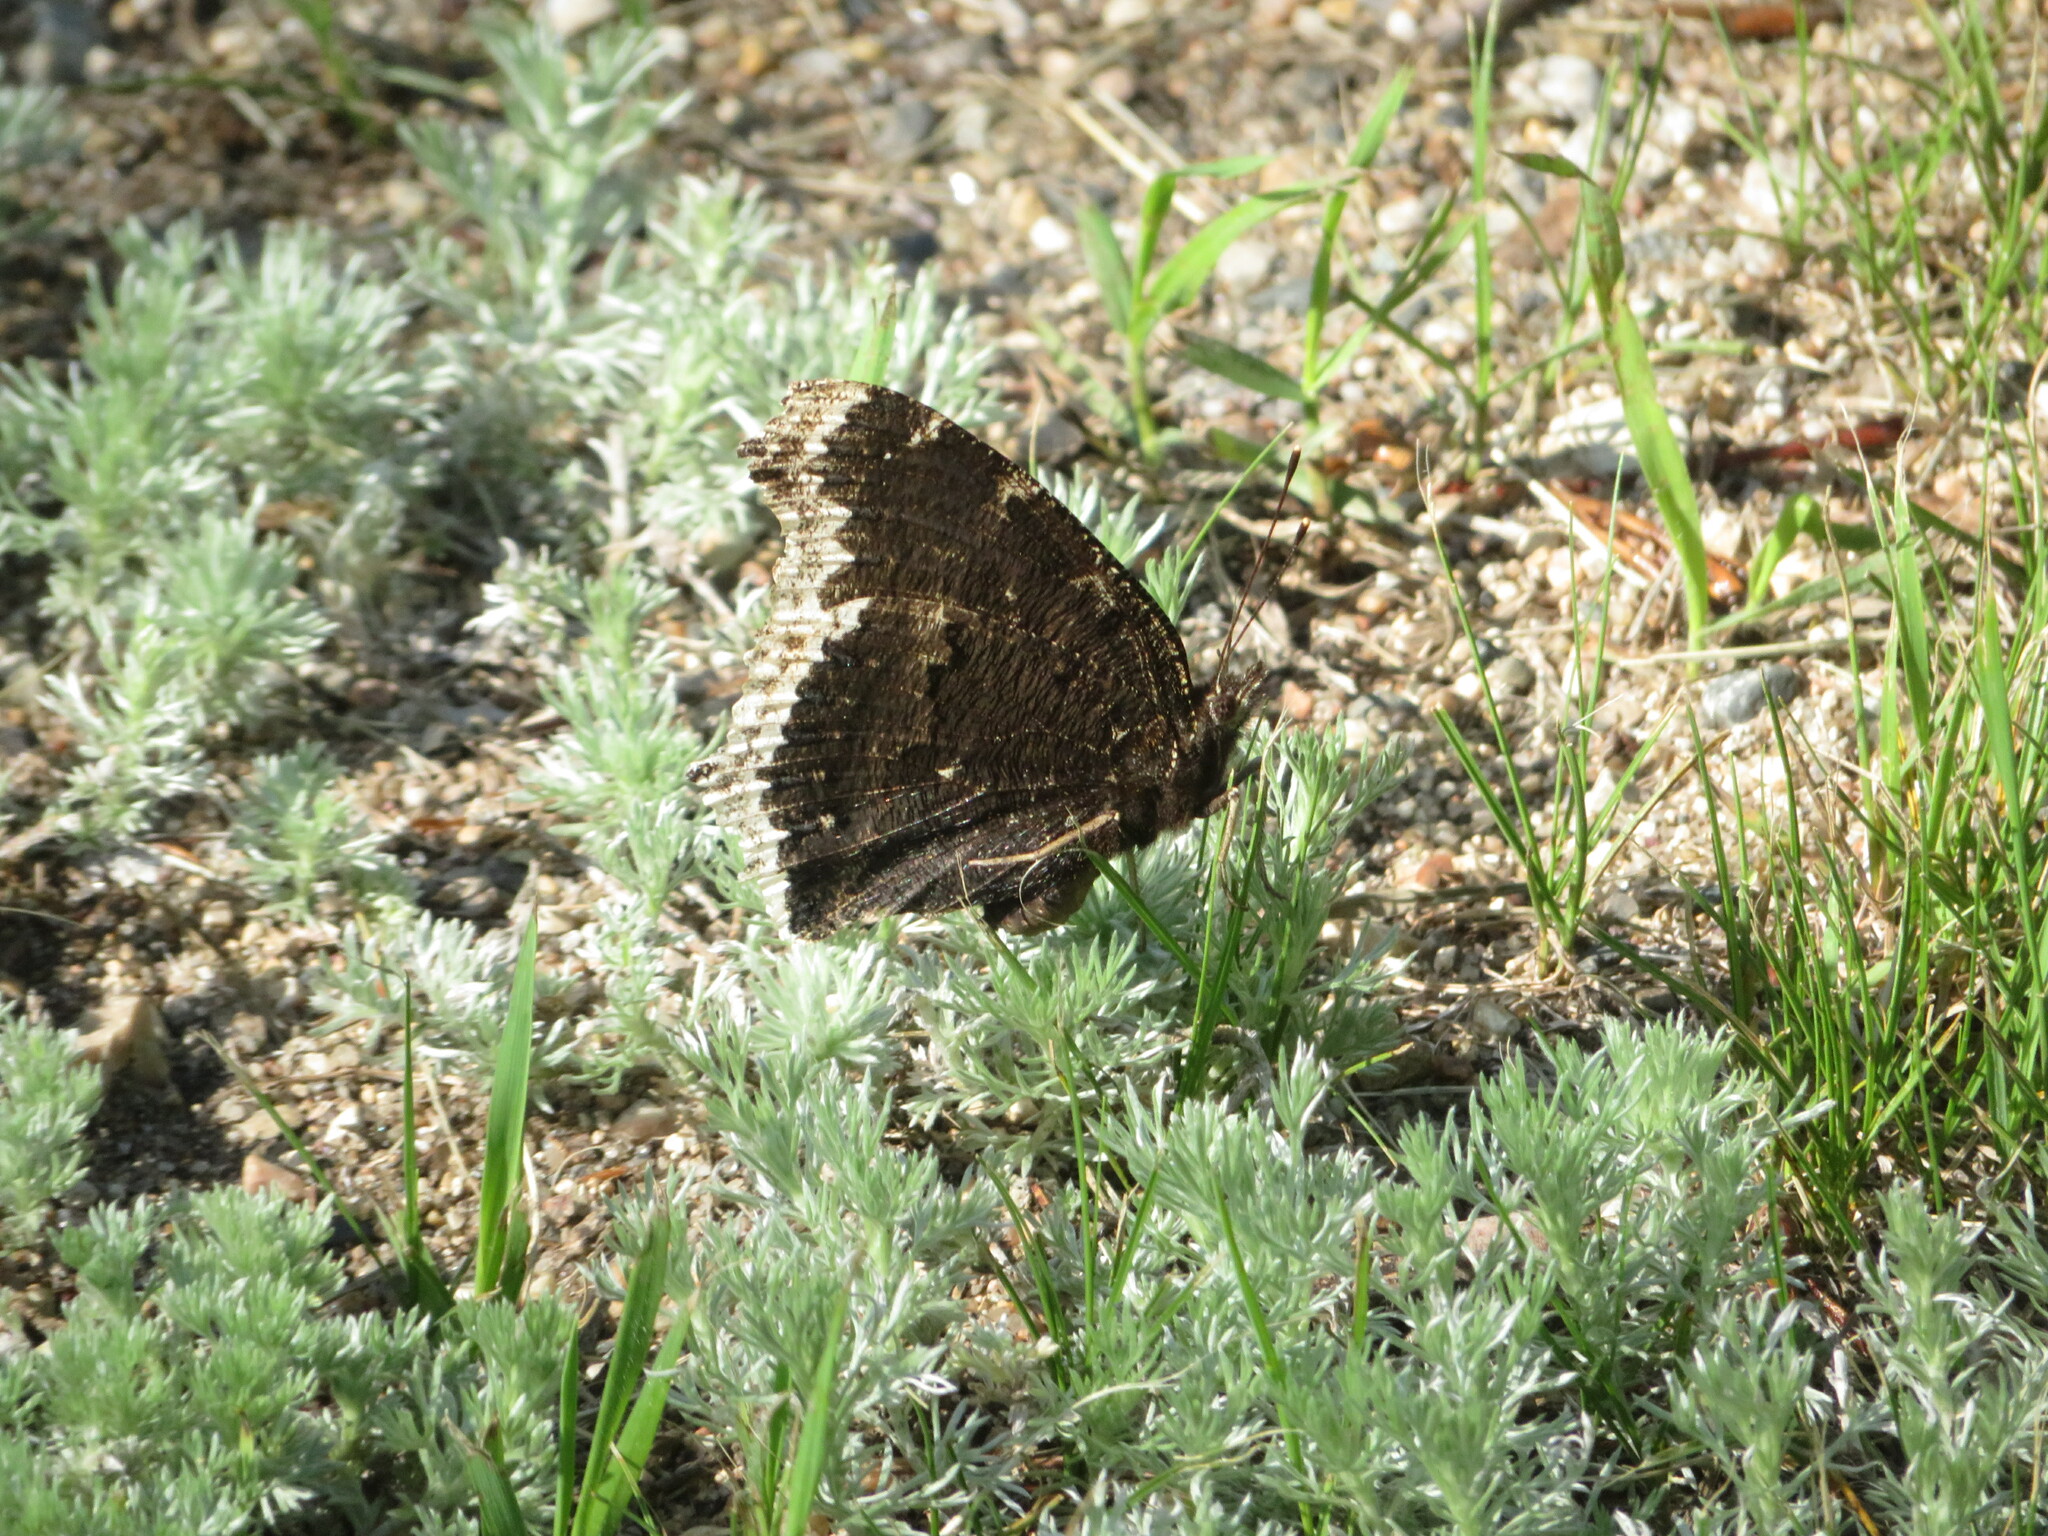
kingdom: Animalia
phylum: Arthropoda
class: Insecta
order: Lepidoptera
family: Nymphalidae
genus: Nymphalis
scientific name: Nymphalis antiopa
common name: Camberwell beauty
